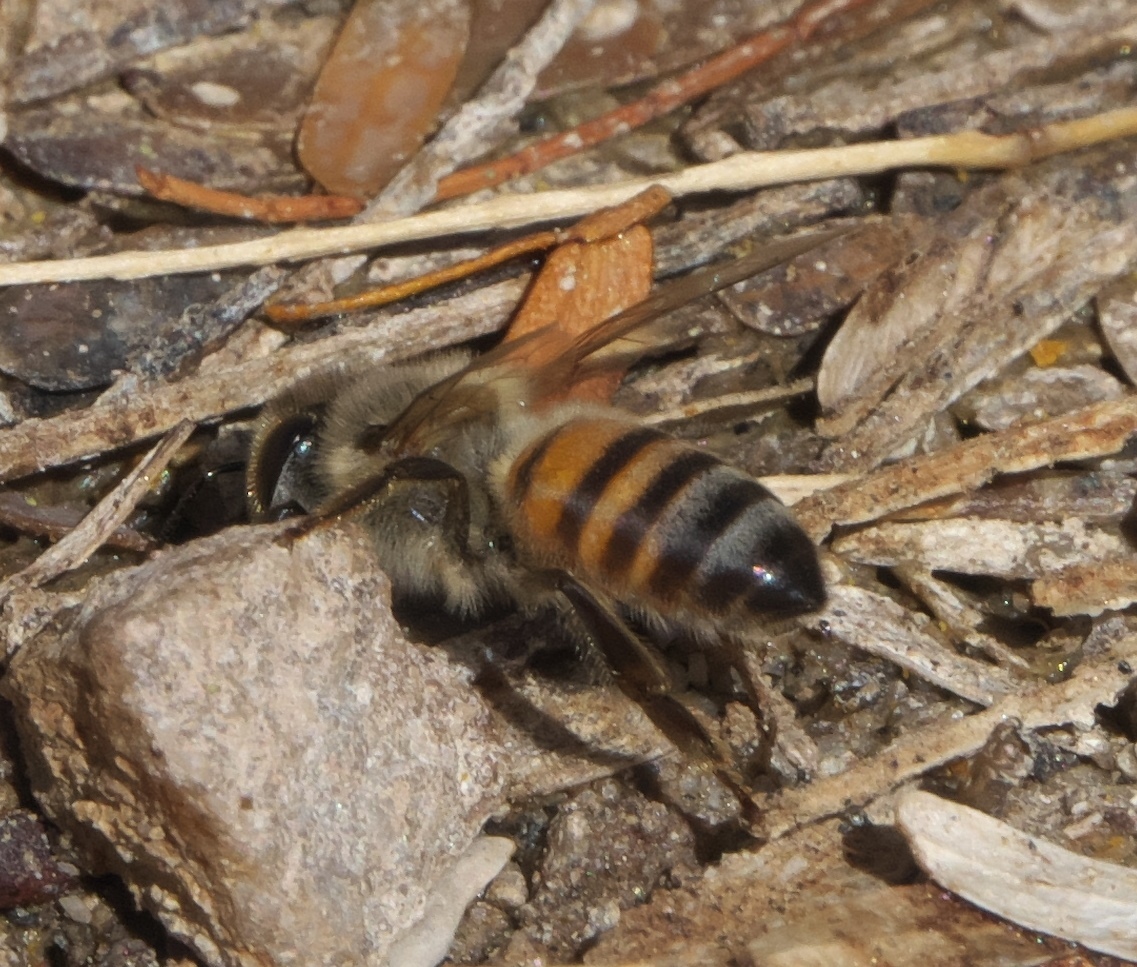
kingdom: Animalia
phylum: Arthropoda
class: Insecta
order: Hymenoptera
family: Apidae
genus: Apis
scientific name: Apis mellifera
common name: Honey bee
